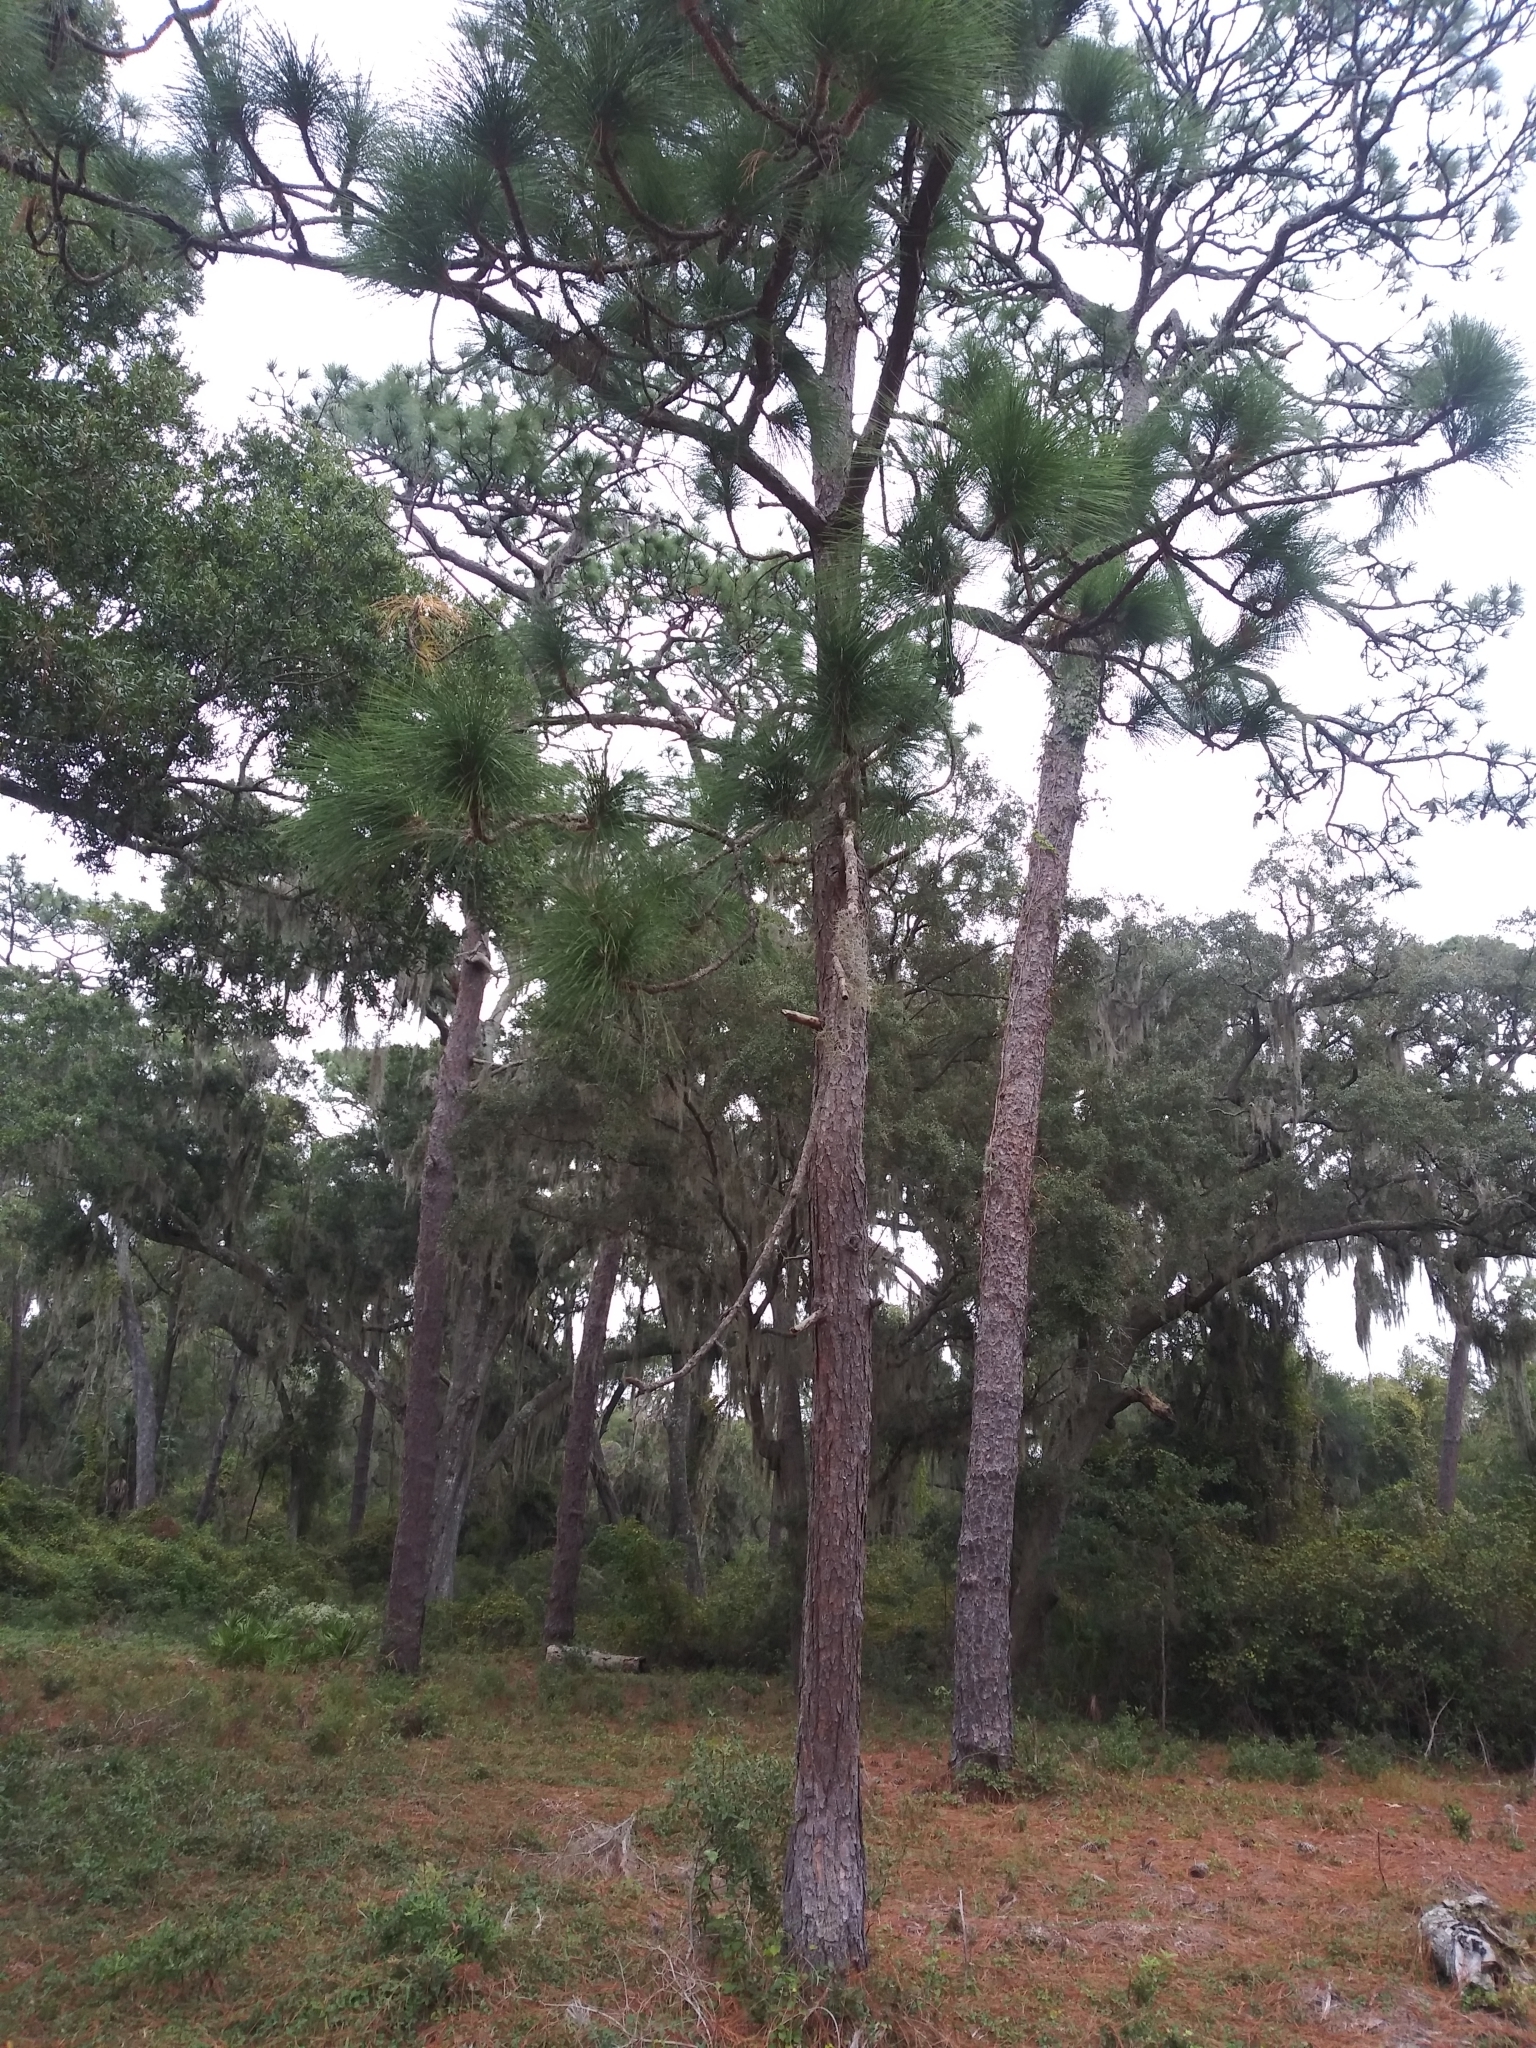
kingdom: Plantae
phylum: Tracheophyta
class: Pinopsida
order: Pinales
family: Pinaceae
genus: Pinus
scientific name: Pinus palustris
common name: Longleaf pine
